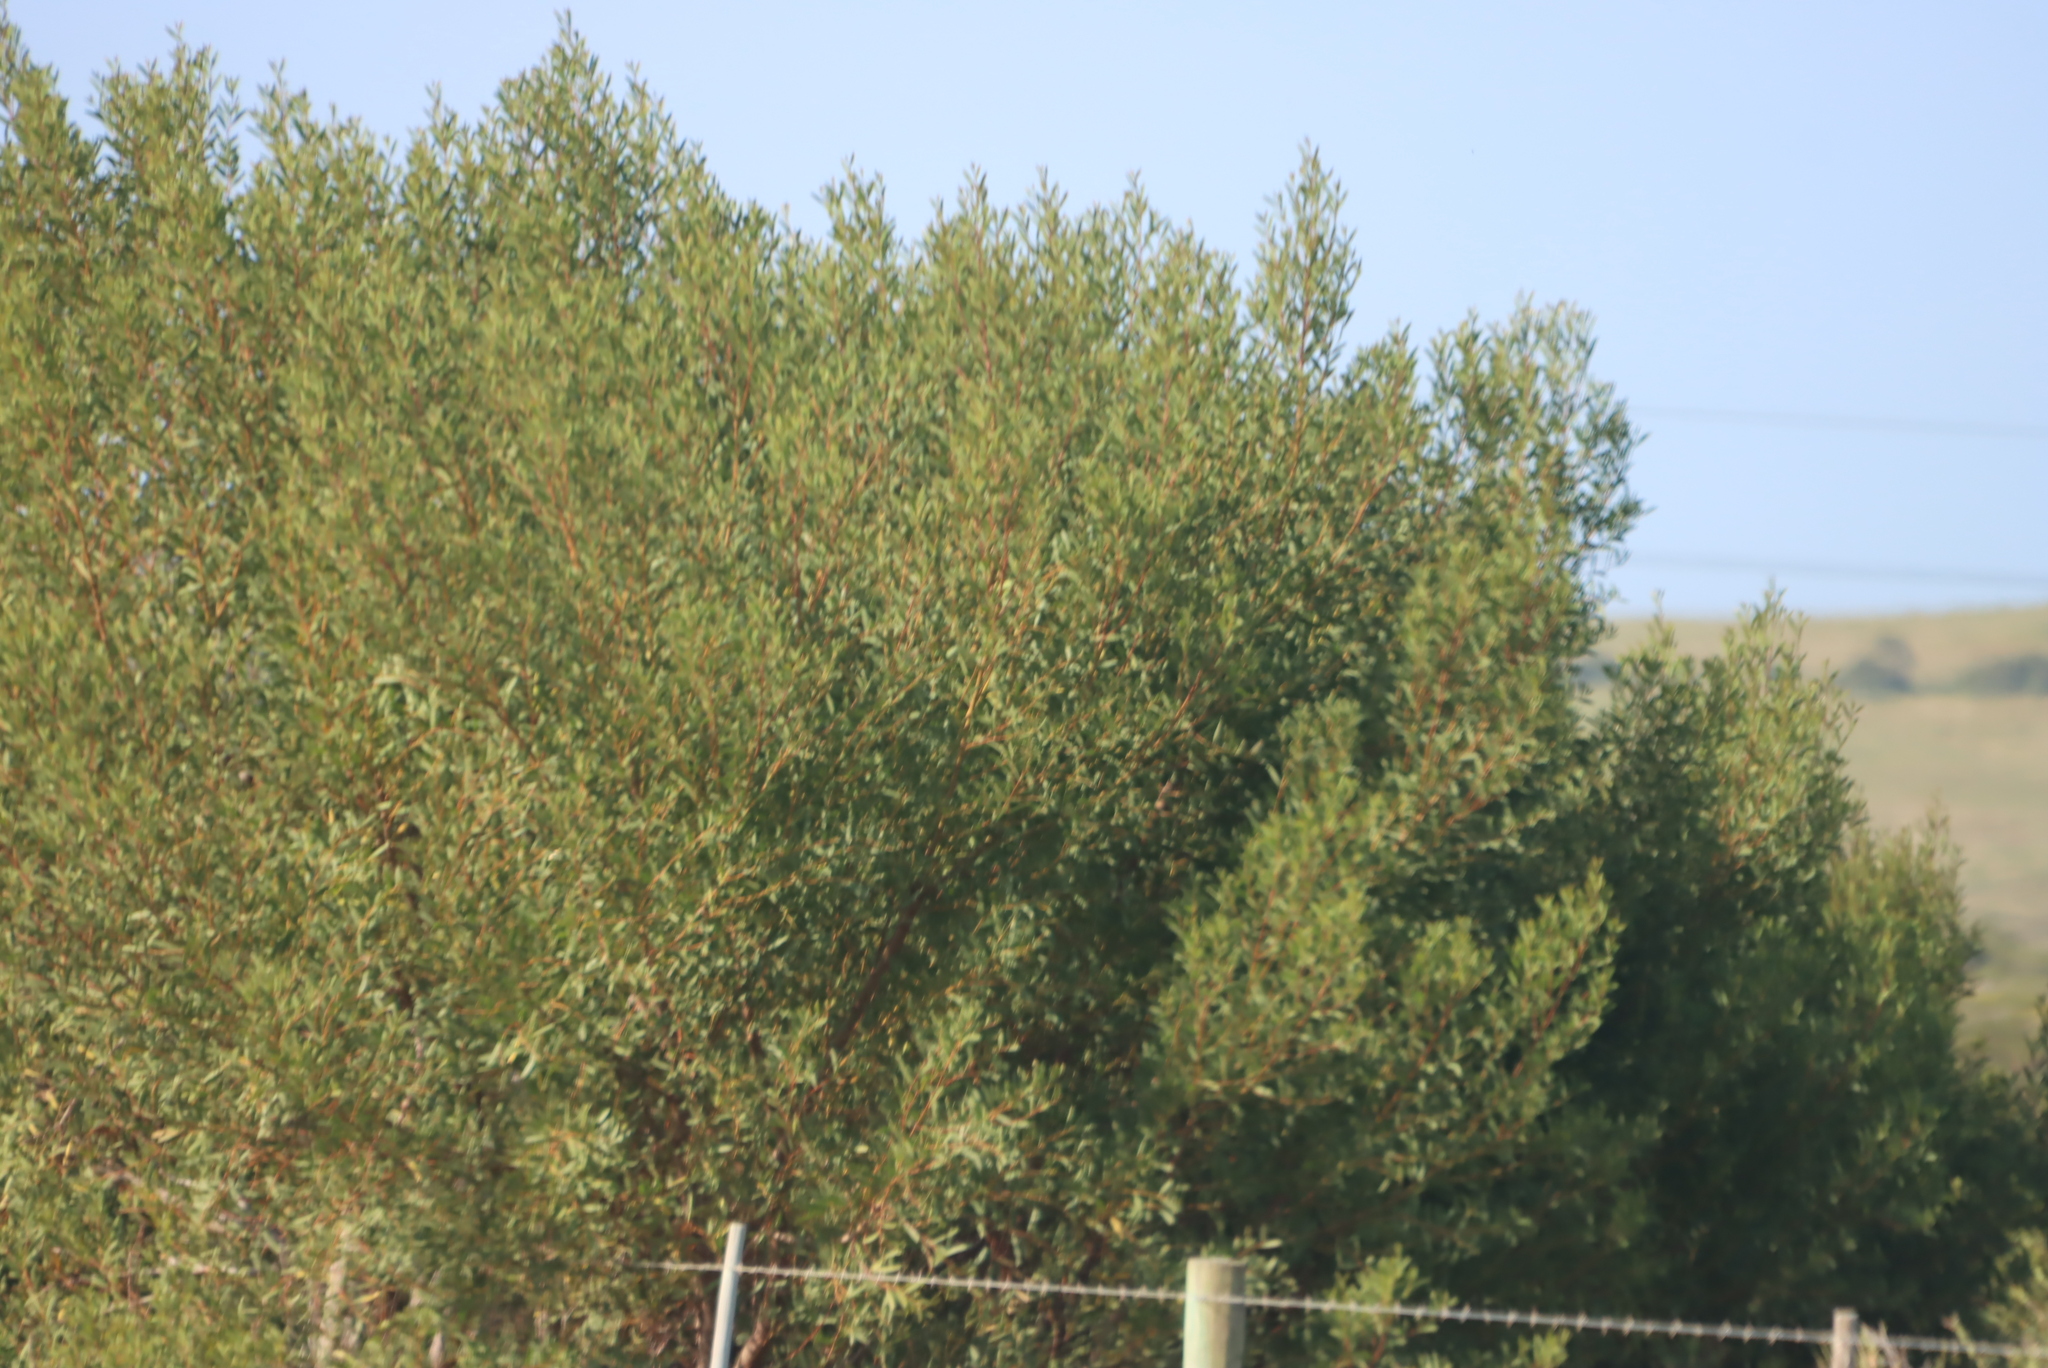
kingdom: Plantae
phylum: Tracheophyta
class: Magnoliopsida
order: Fabales
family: Fabaceae
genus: Acacia
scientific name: Acacia cyclops
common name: Coastal wattle
